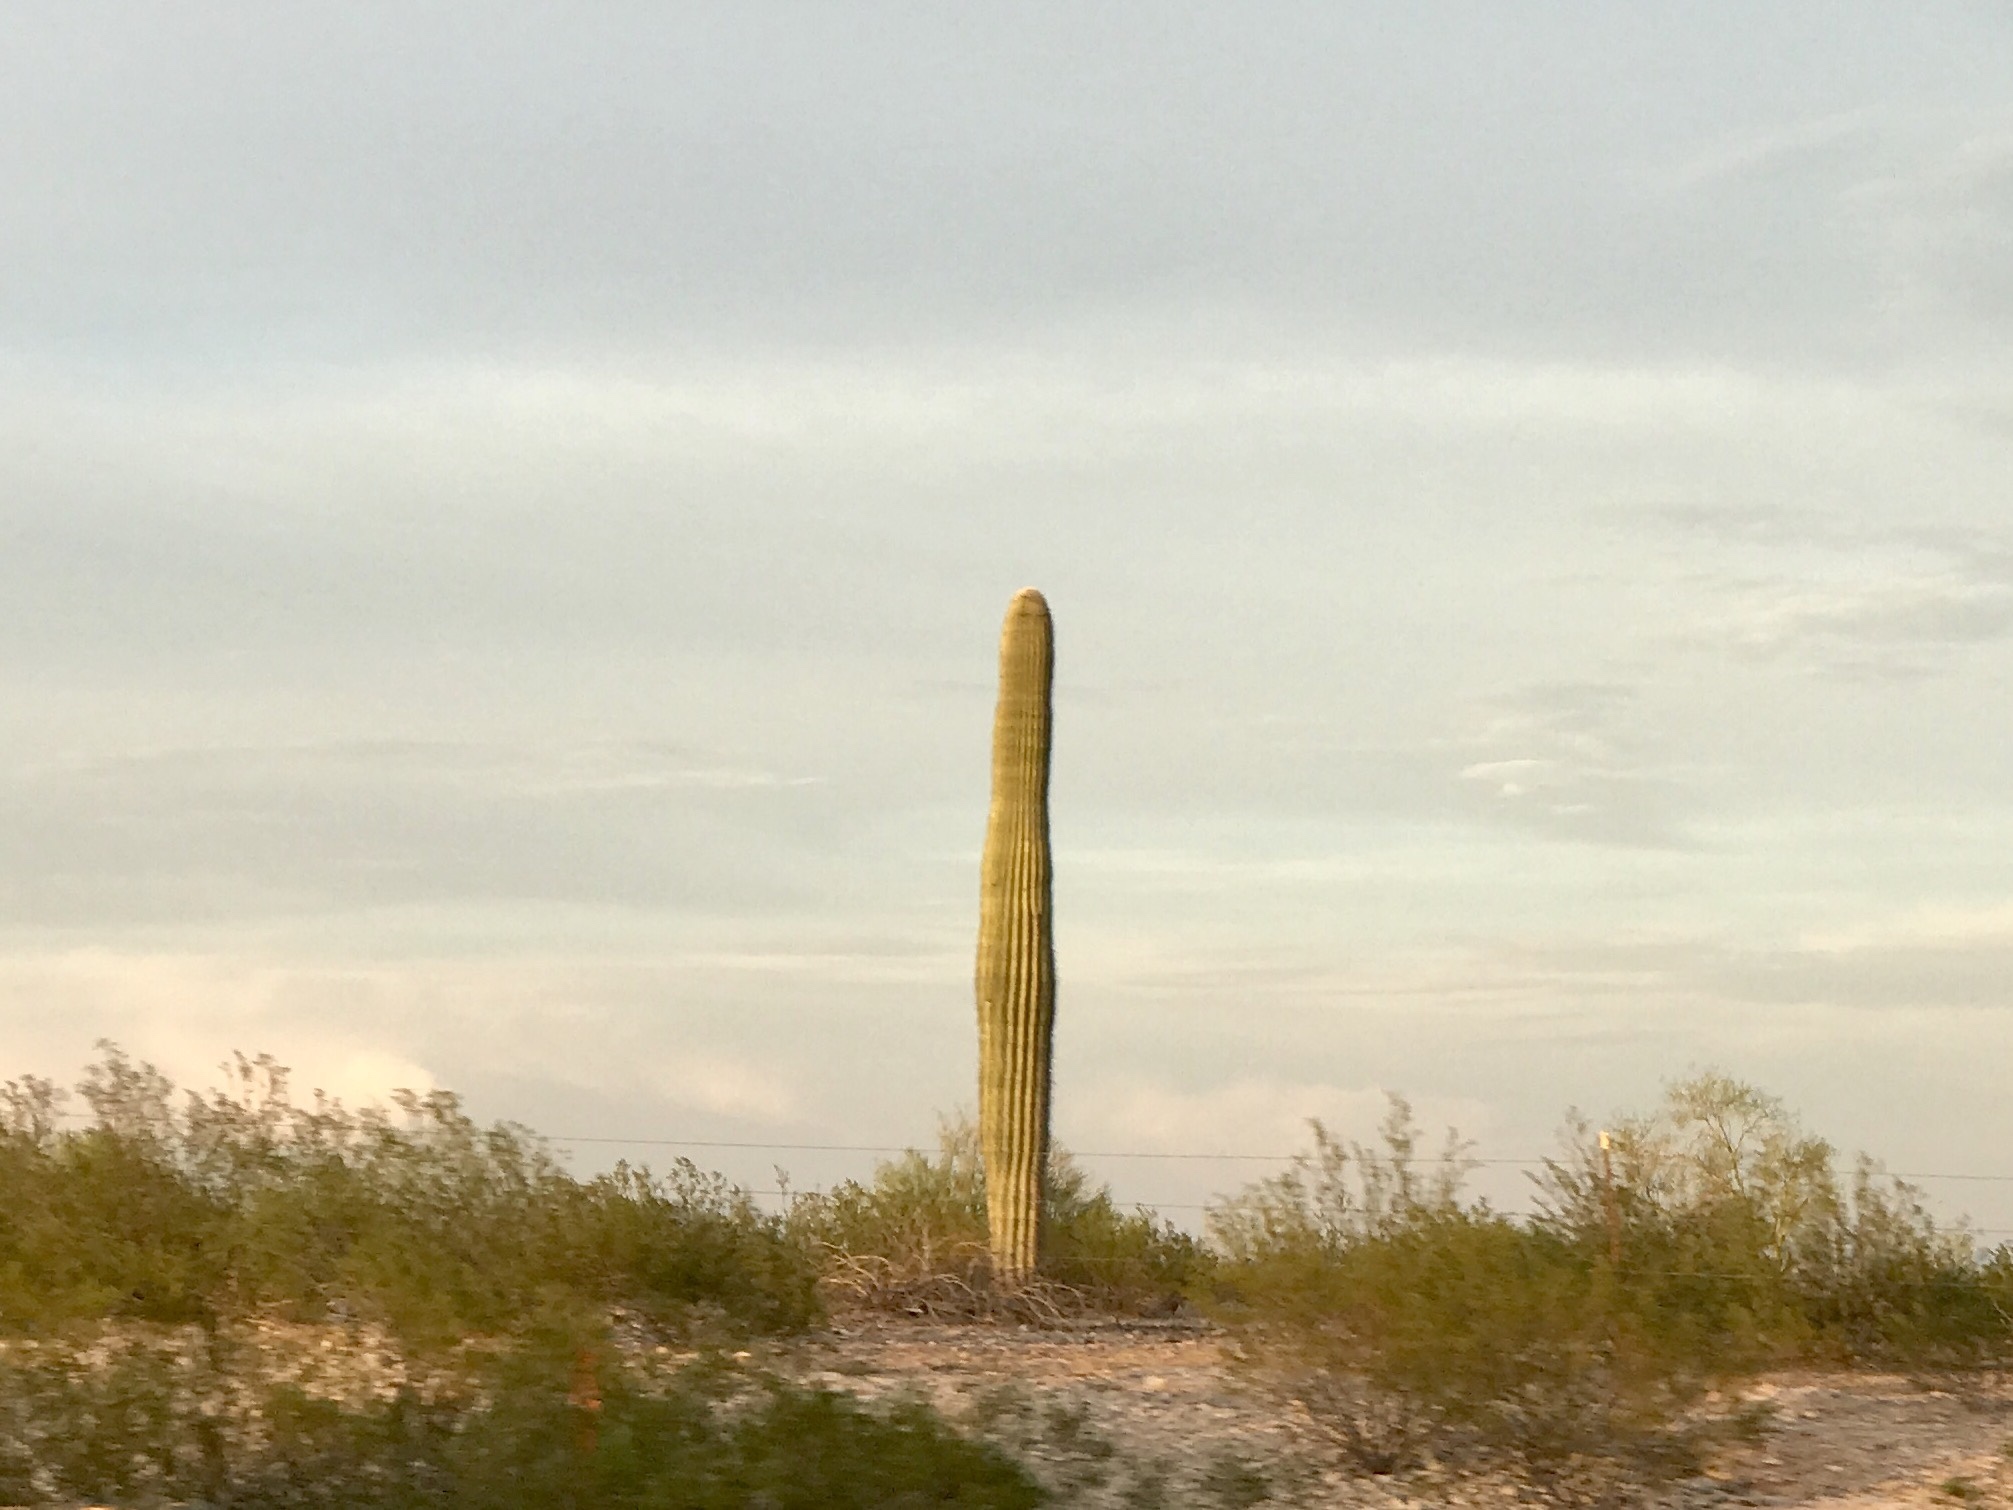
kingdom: Plantae
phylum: Tracheophyta
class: Magnoliopsida
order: Caryophyllales
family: Cactaceae
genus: Carnegiea
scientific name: Carnegiea gigantea
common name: Saguaro
